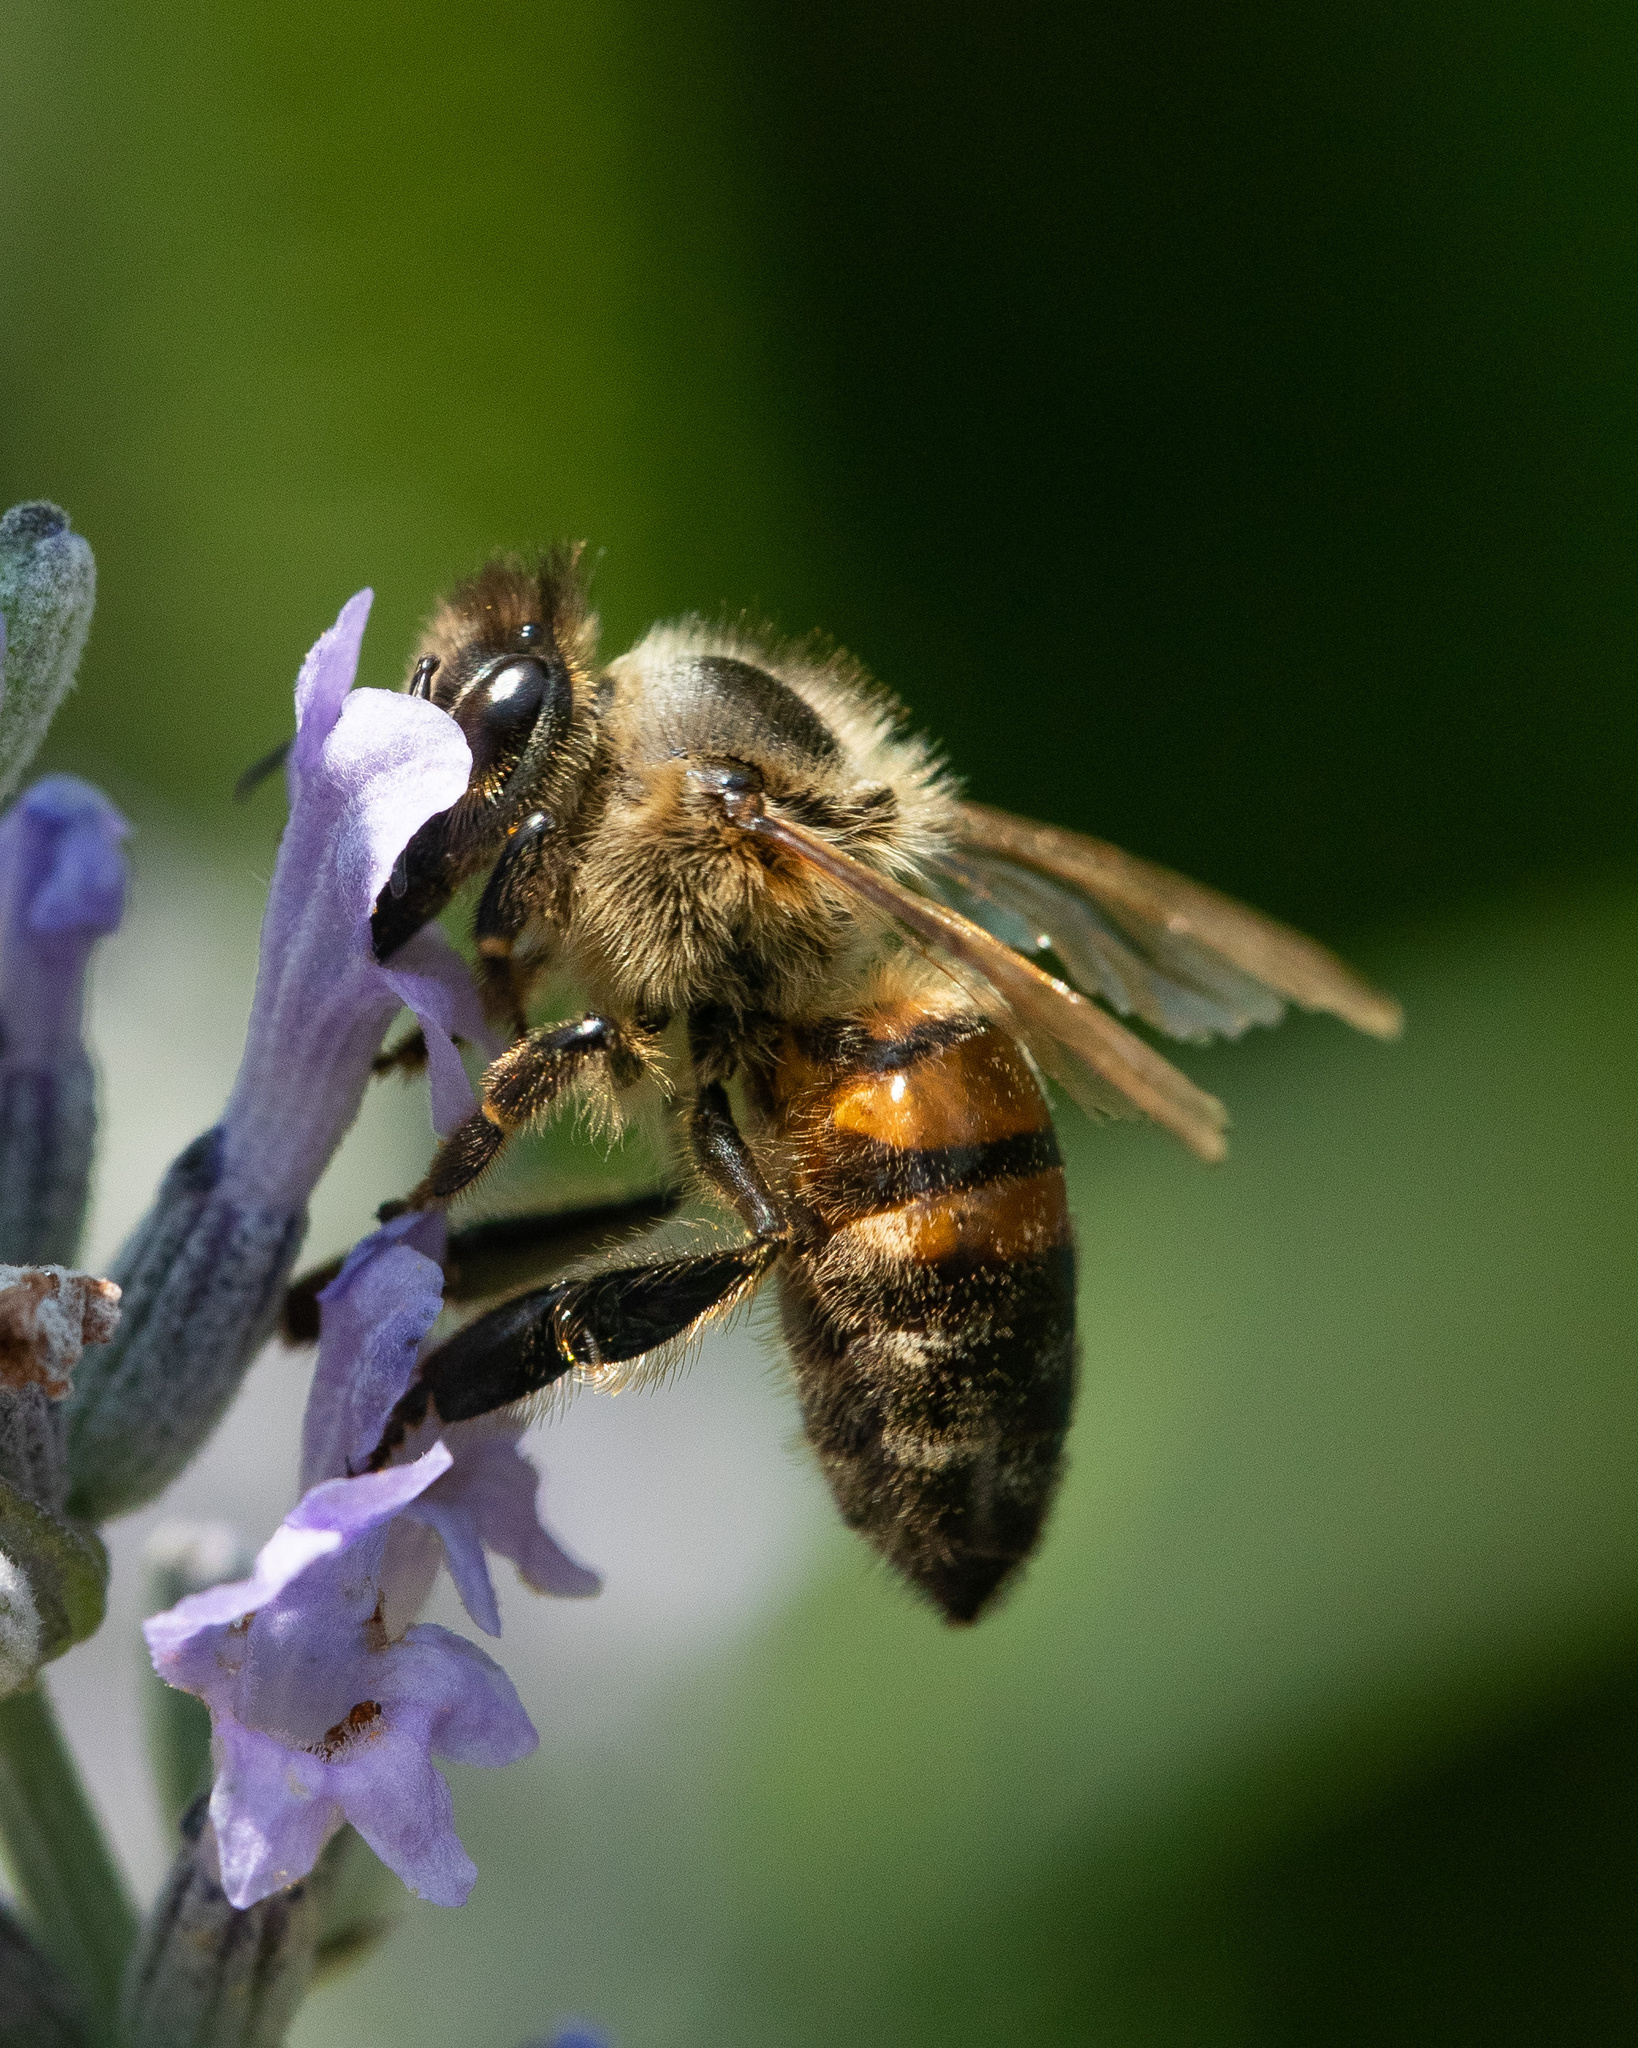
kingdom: Animalia
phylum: Arthropoda
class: Insecta
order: Hymenoptera
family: Apidae
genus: Apis
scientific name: Apis mellifera
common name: Honey bee
